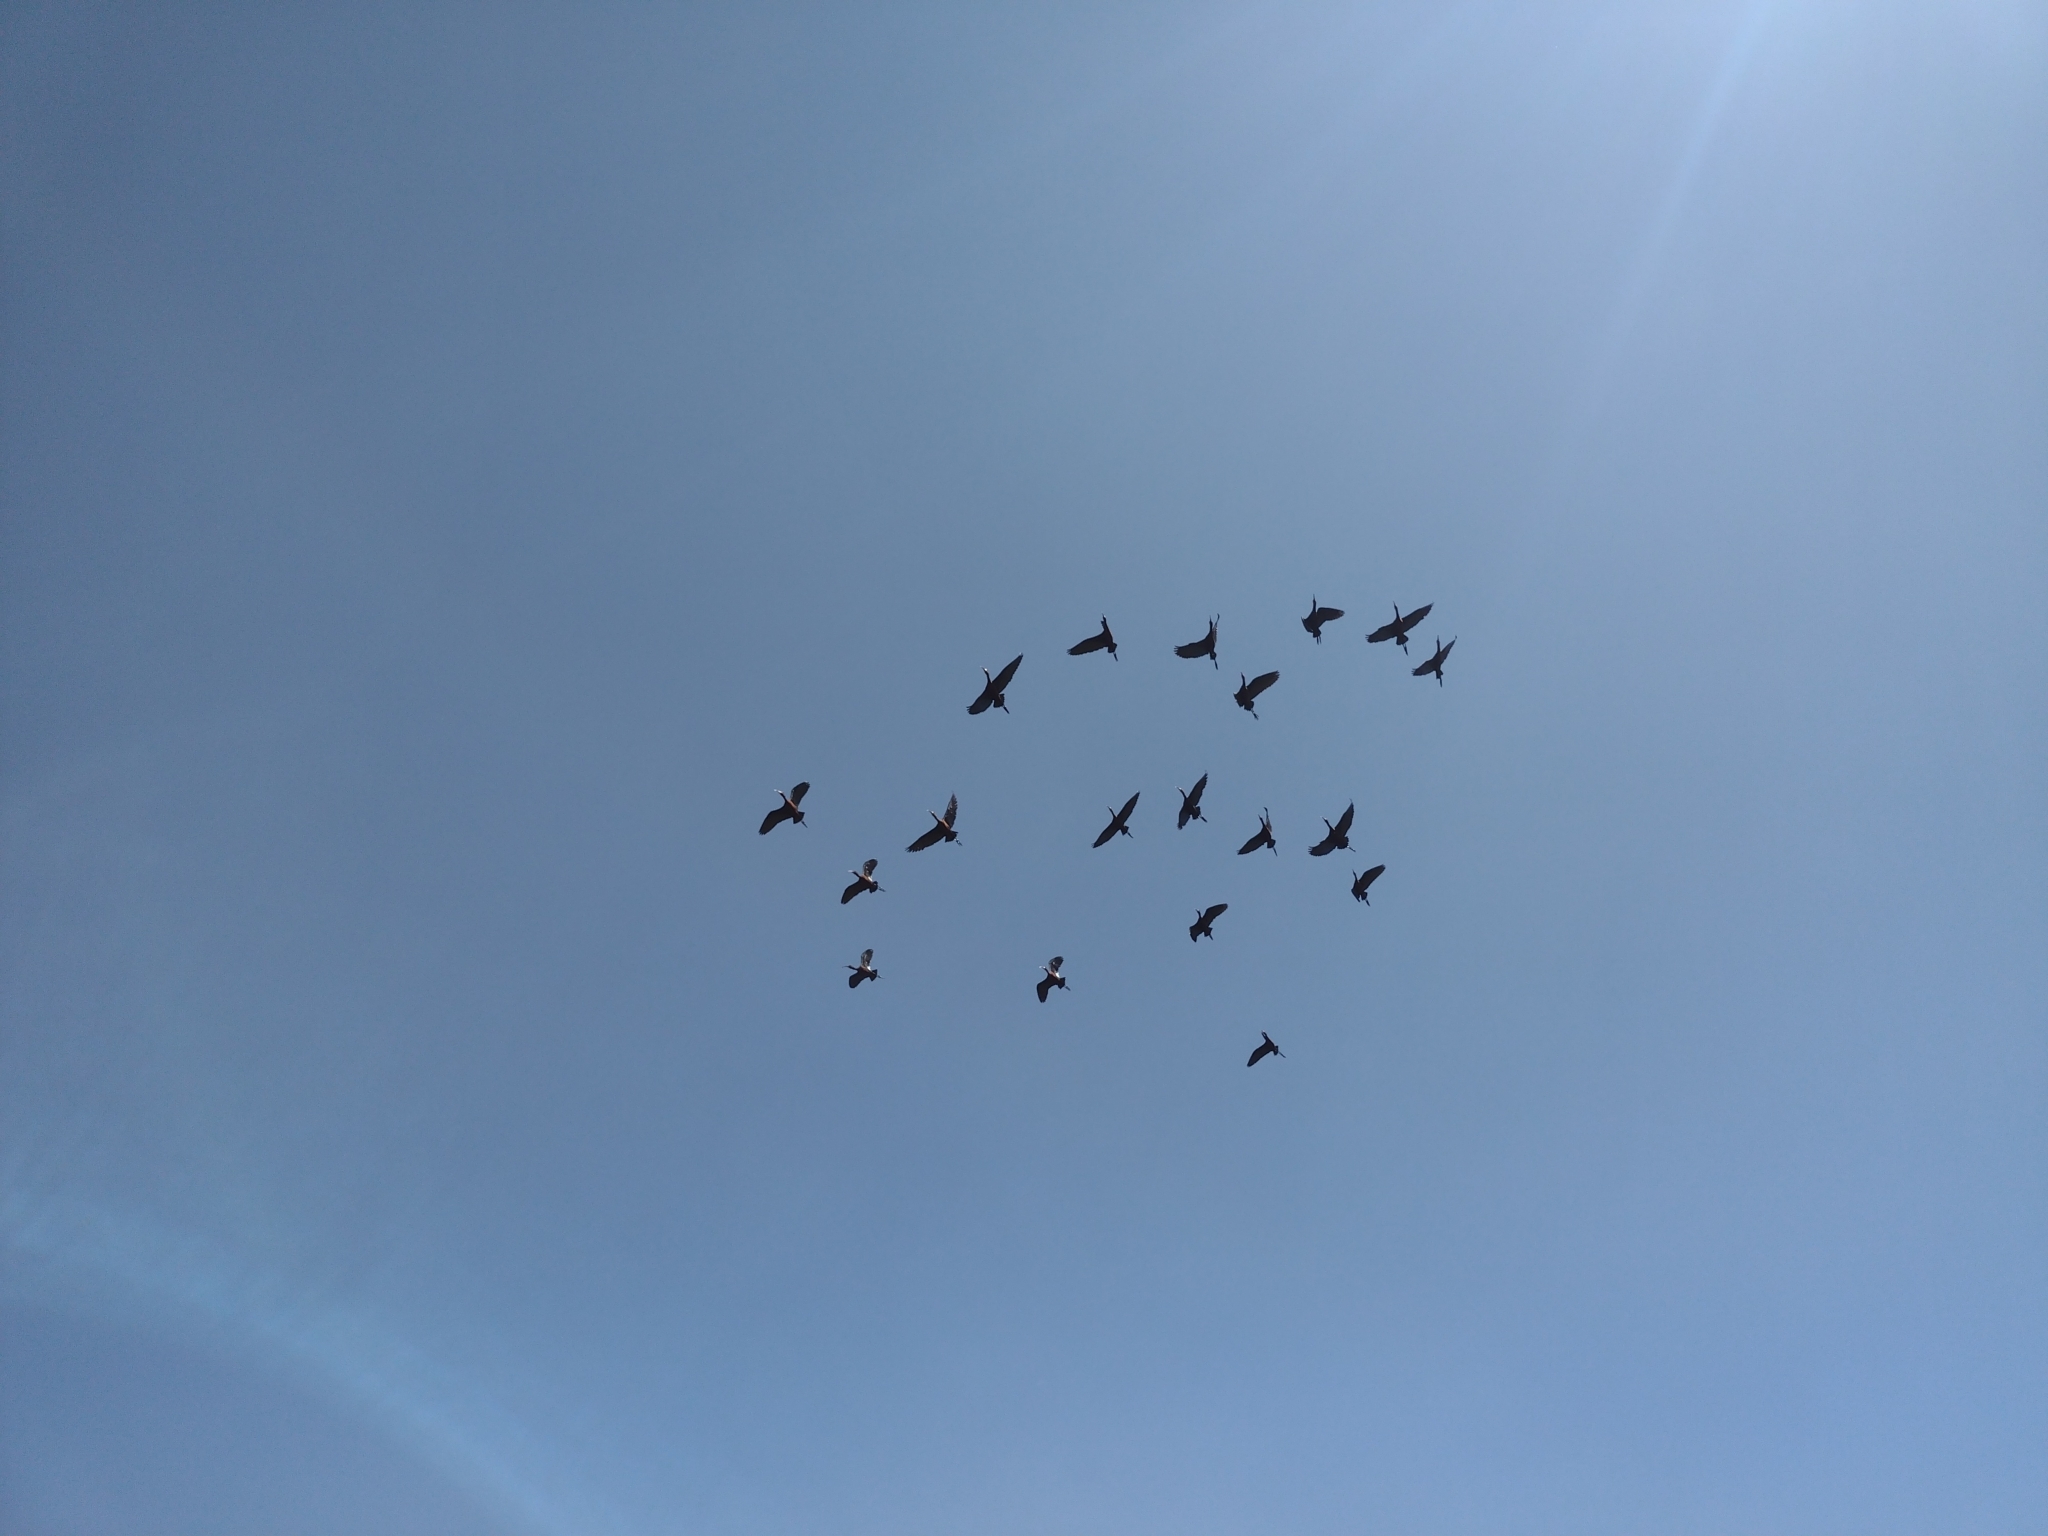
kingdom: Animalia
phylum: Chordata
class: Aves
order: Pelecaniformes
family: Threskiornithidae
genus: Plegadis
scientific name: Plegadis chihi
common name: White-faced ibis
